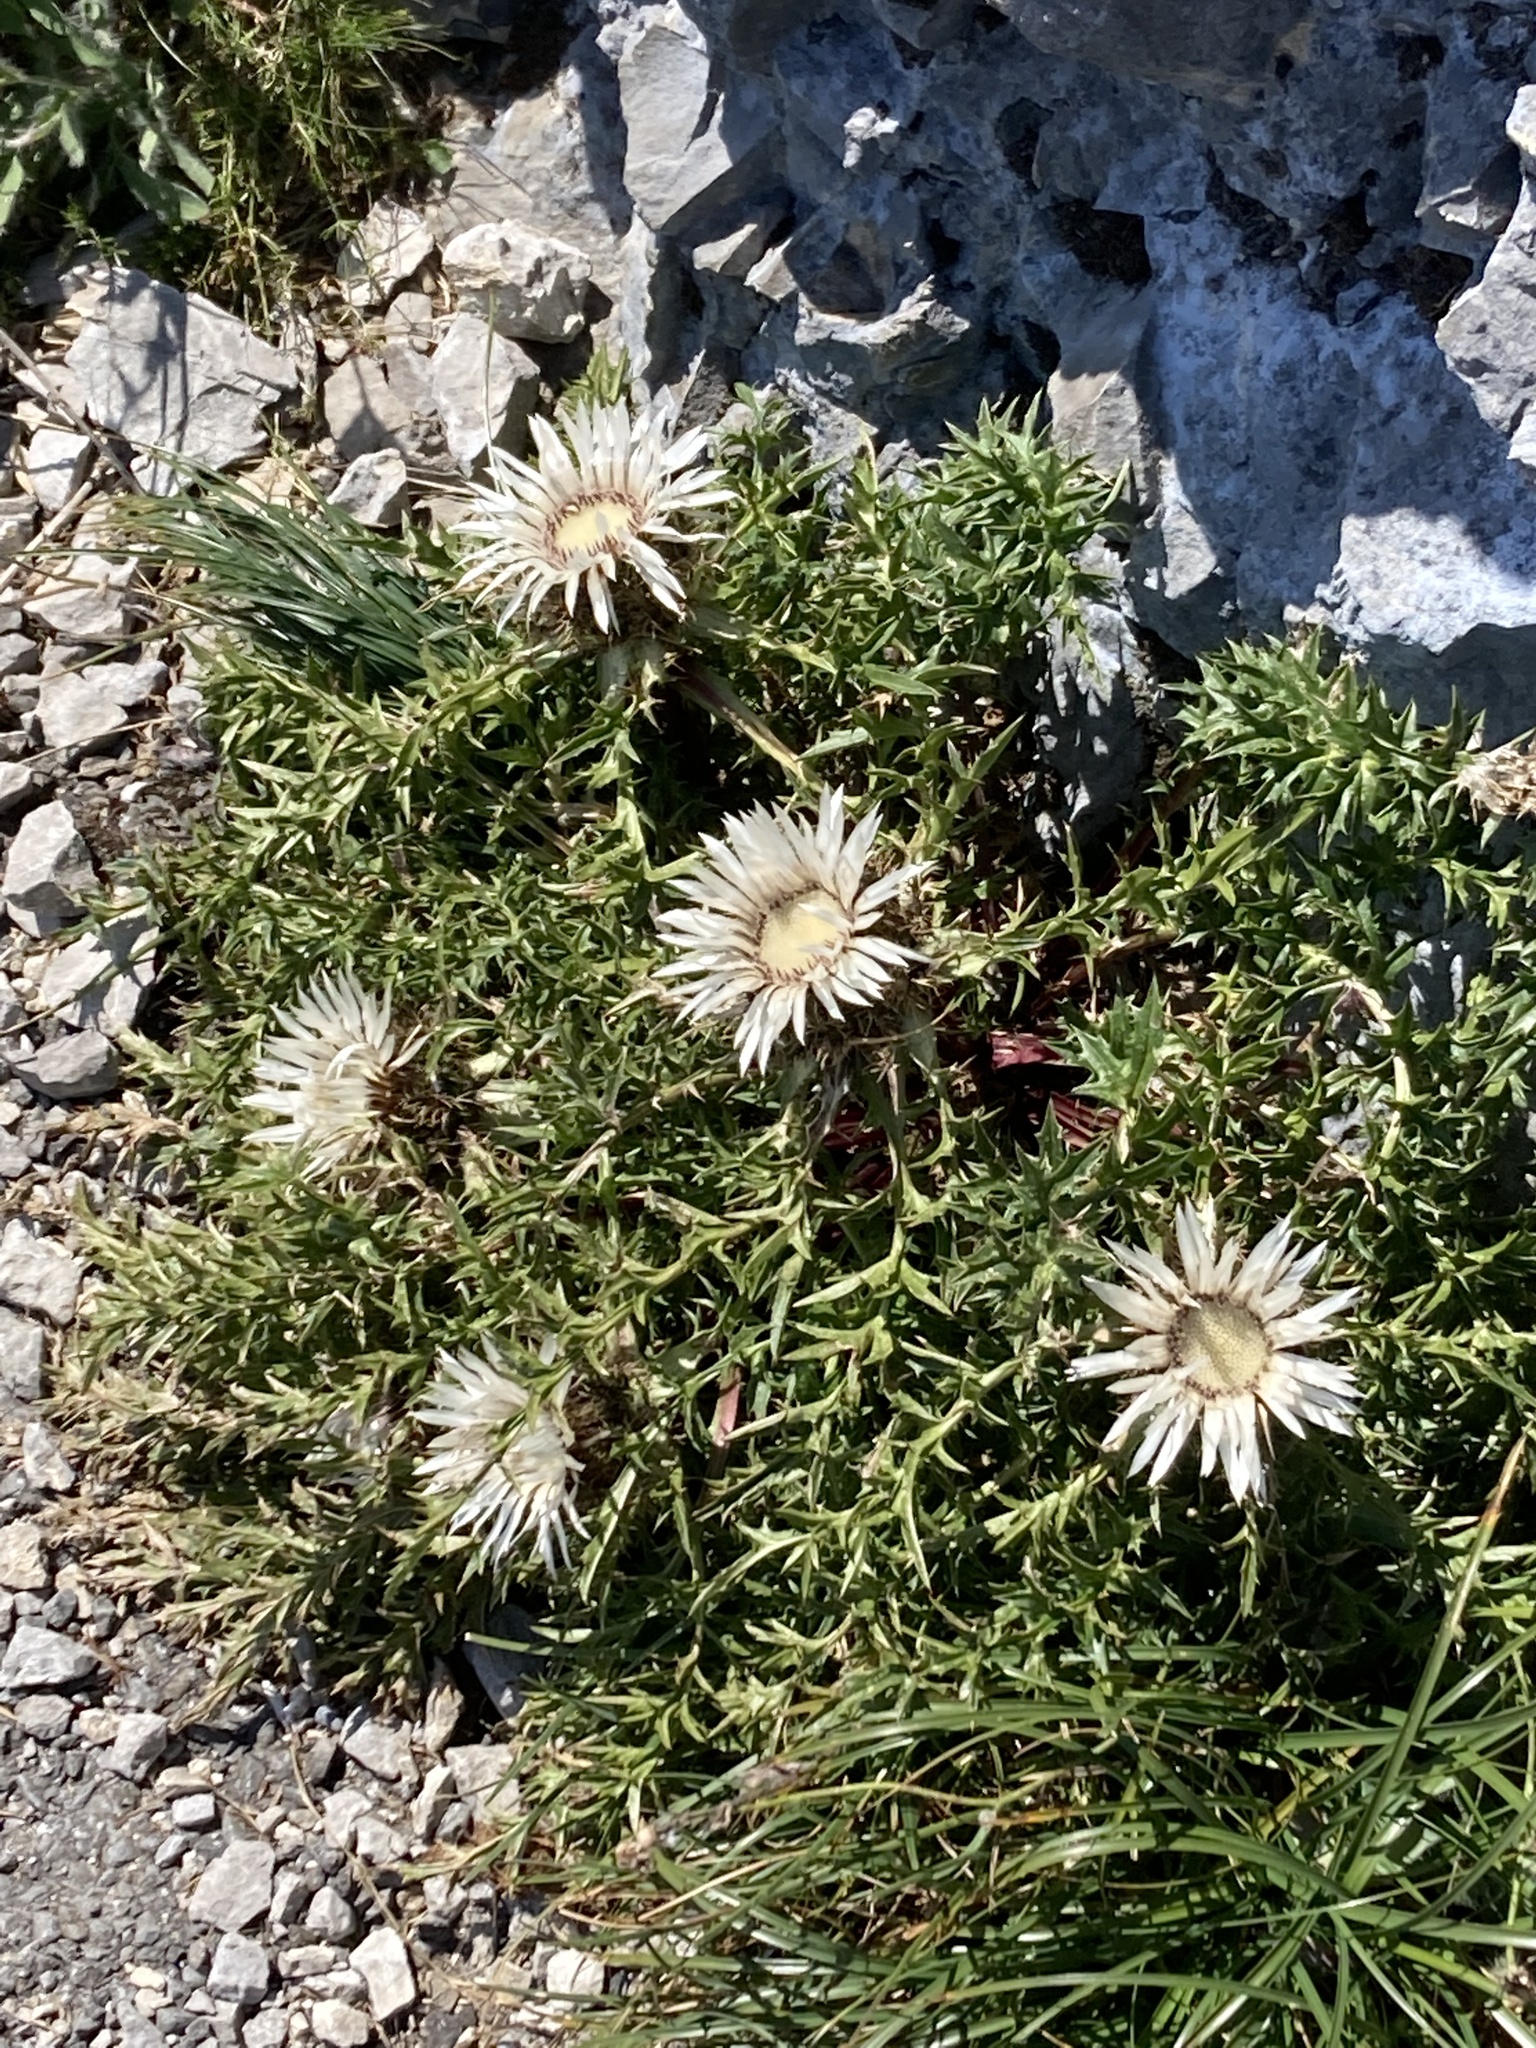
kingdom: Plantae
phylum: Tracheophyta
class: Magnoliopsida
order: Asterales
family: Asteraceae
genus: Carlina
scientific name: Carlina acaulis
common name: Stemless carline thistle
